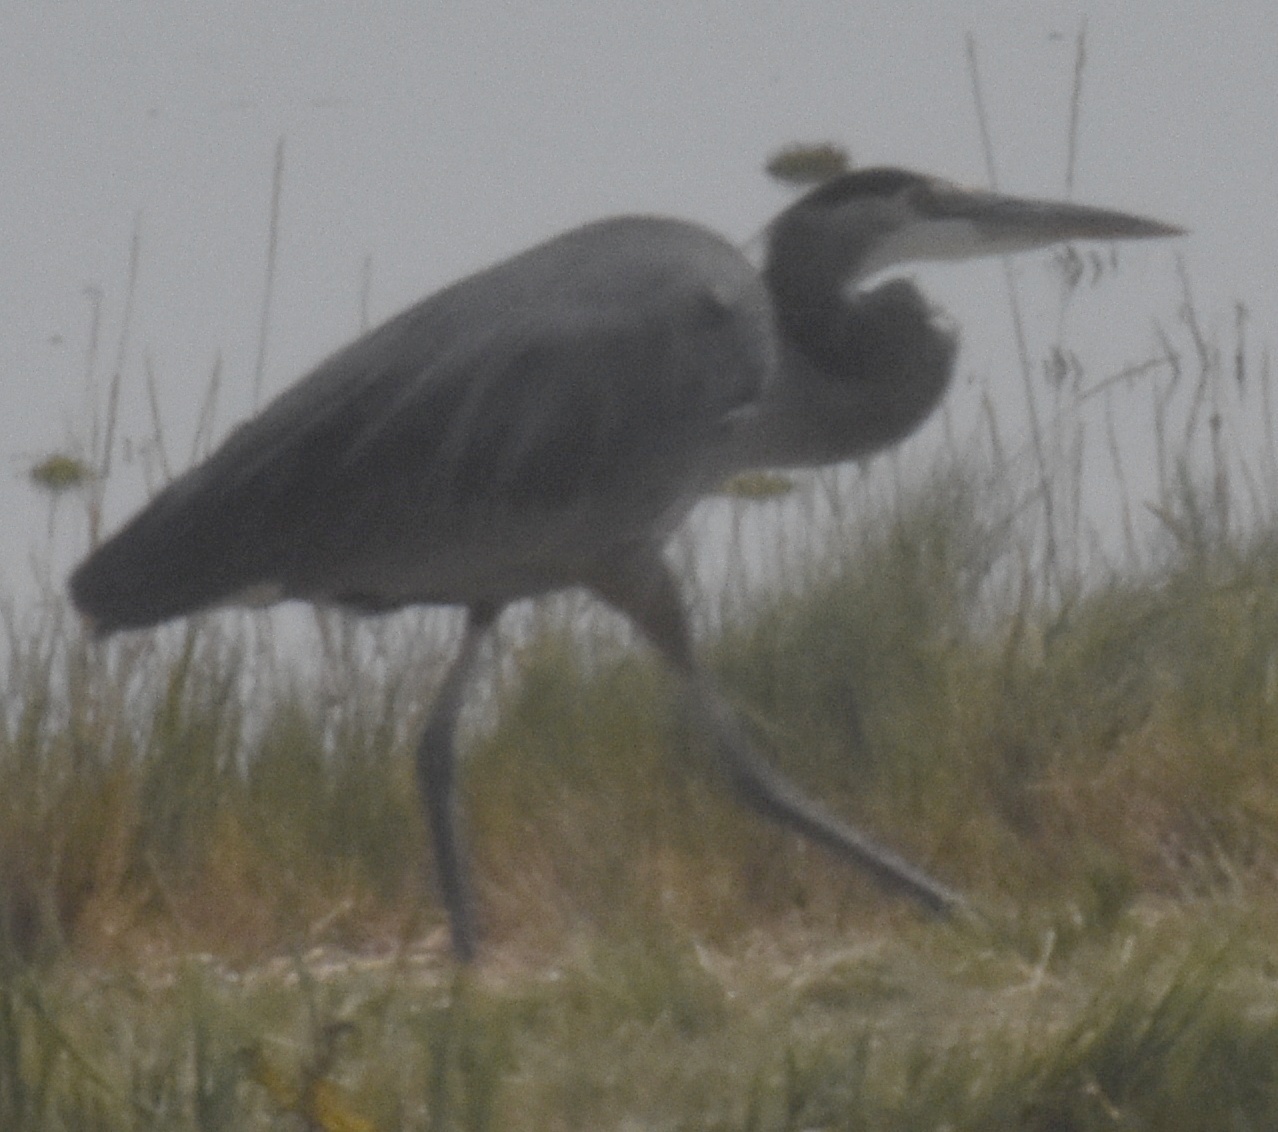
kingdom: Animalia
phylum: Chordata
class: Aves
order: Pelecaniformes
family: Ardeidae
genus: Ardea
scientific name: Ardea herodias
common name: Great blue heron
